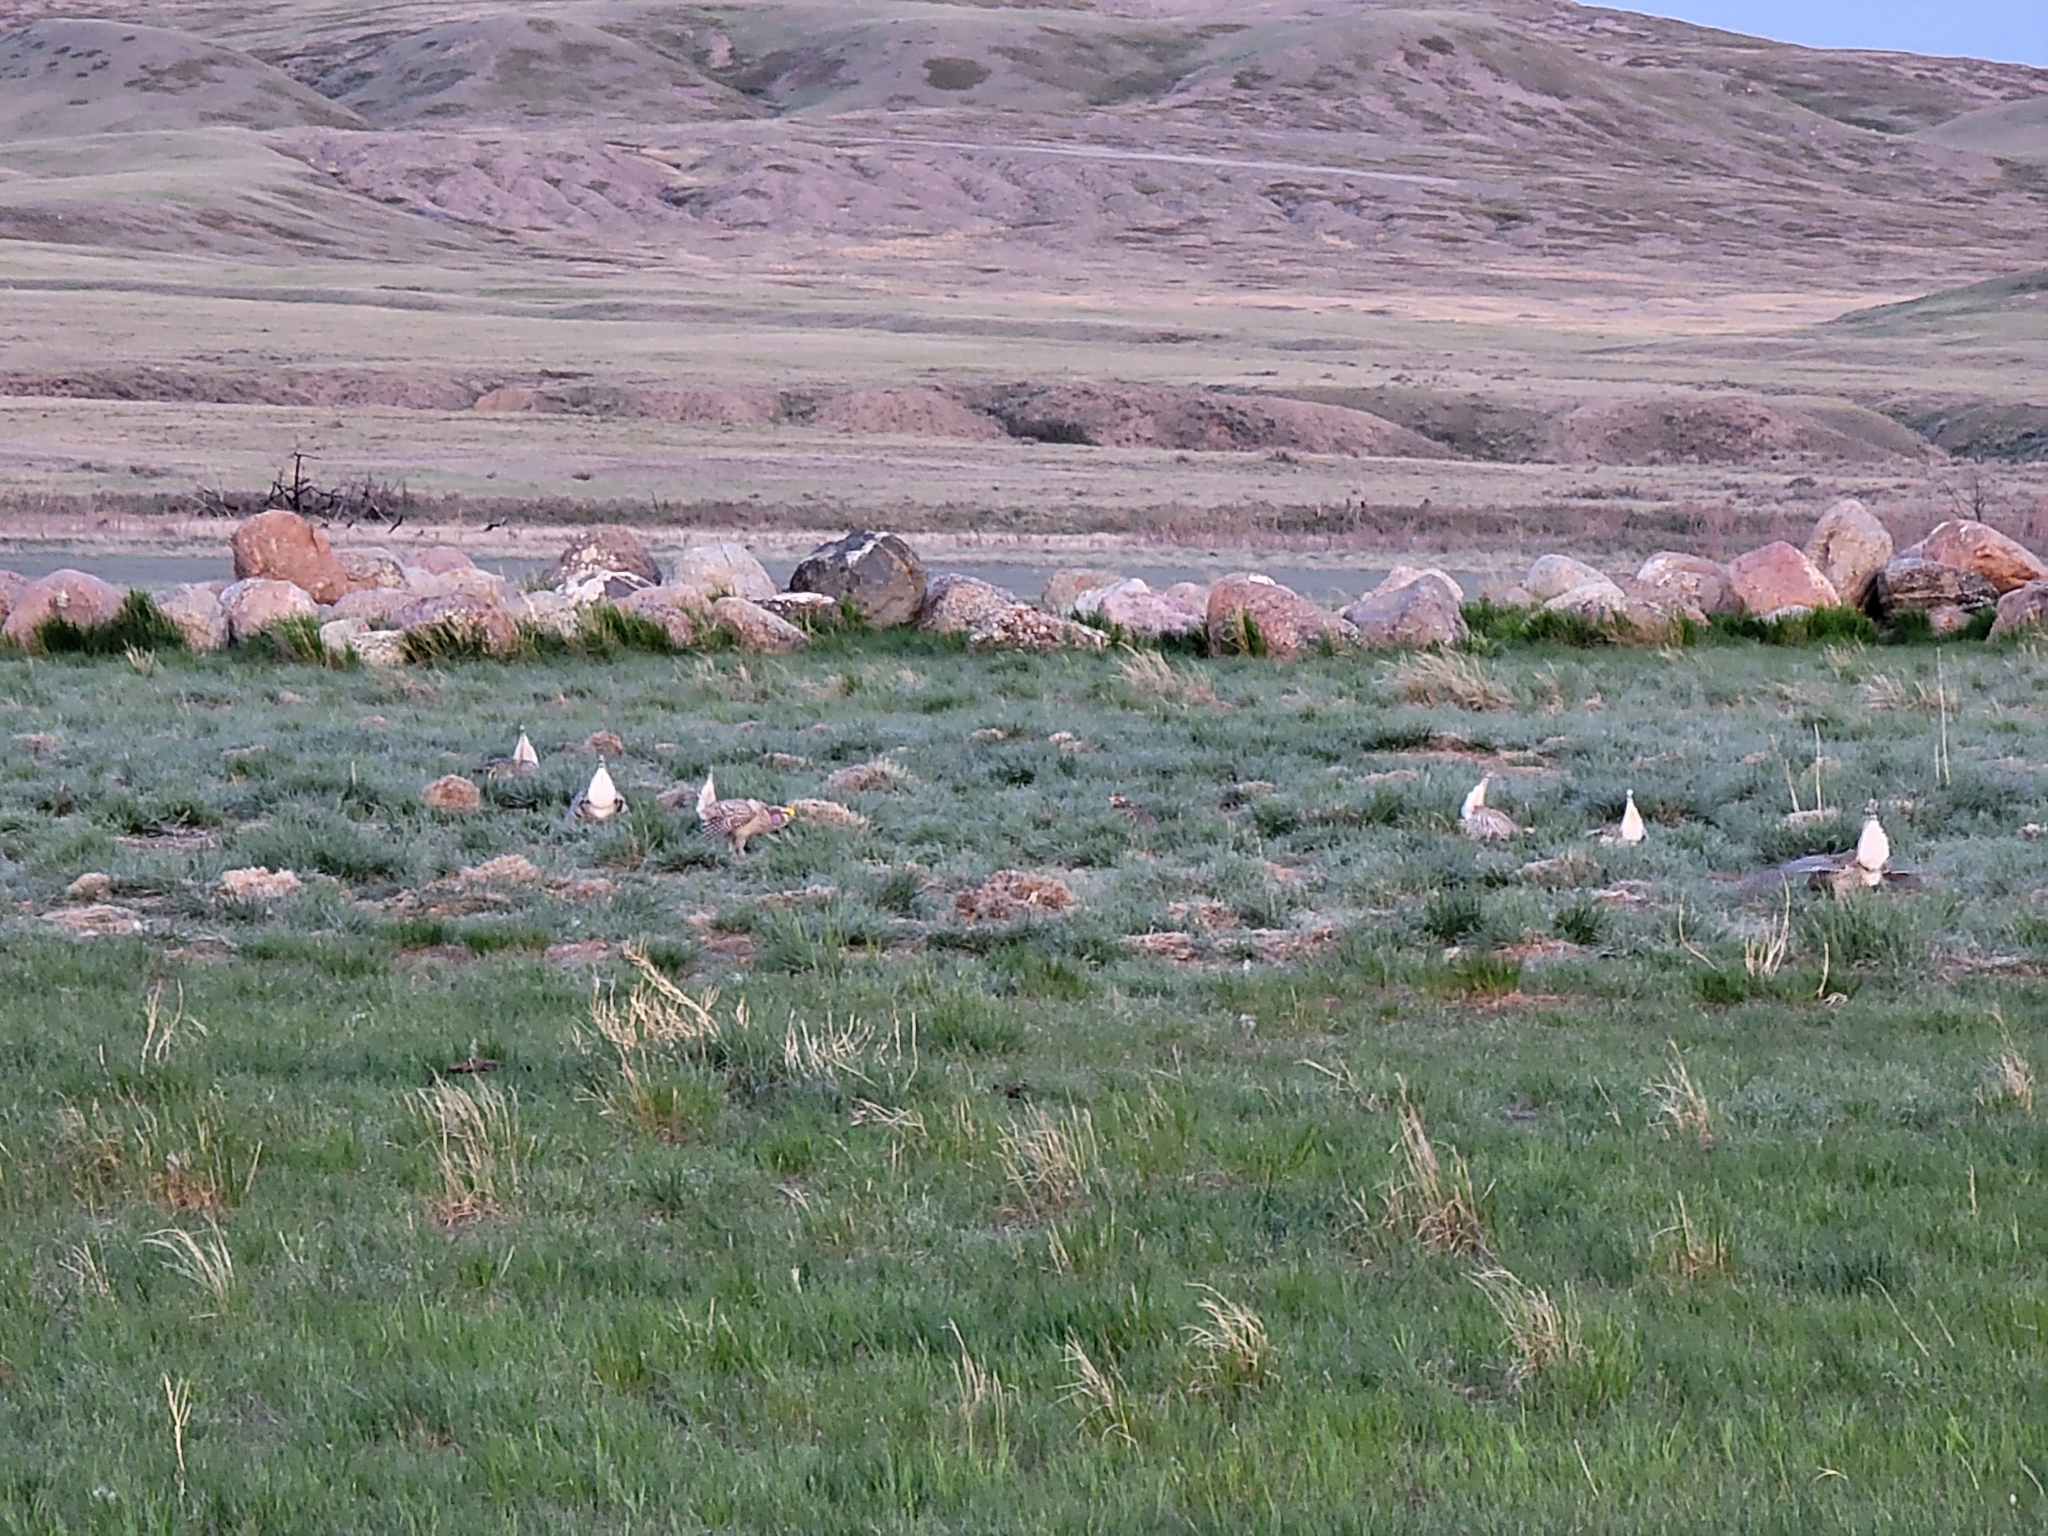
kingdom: Animalia
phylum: Chordata
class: Aves
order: Galliformes
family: Phasianidae
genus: Tympanuchus
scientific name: Tympanuchus phasianellus
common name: Sharp-tailed grouse
